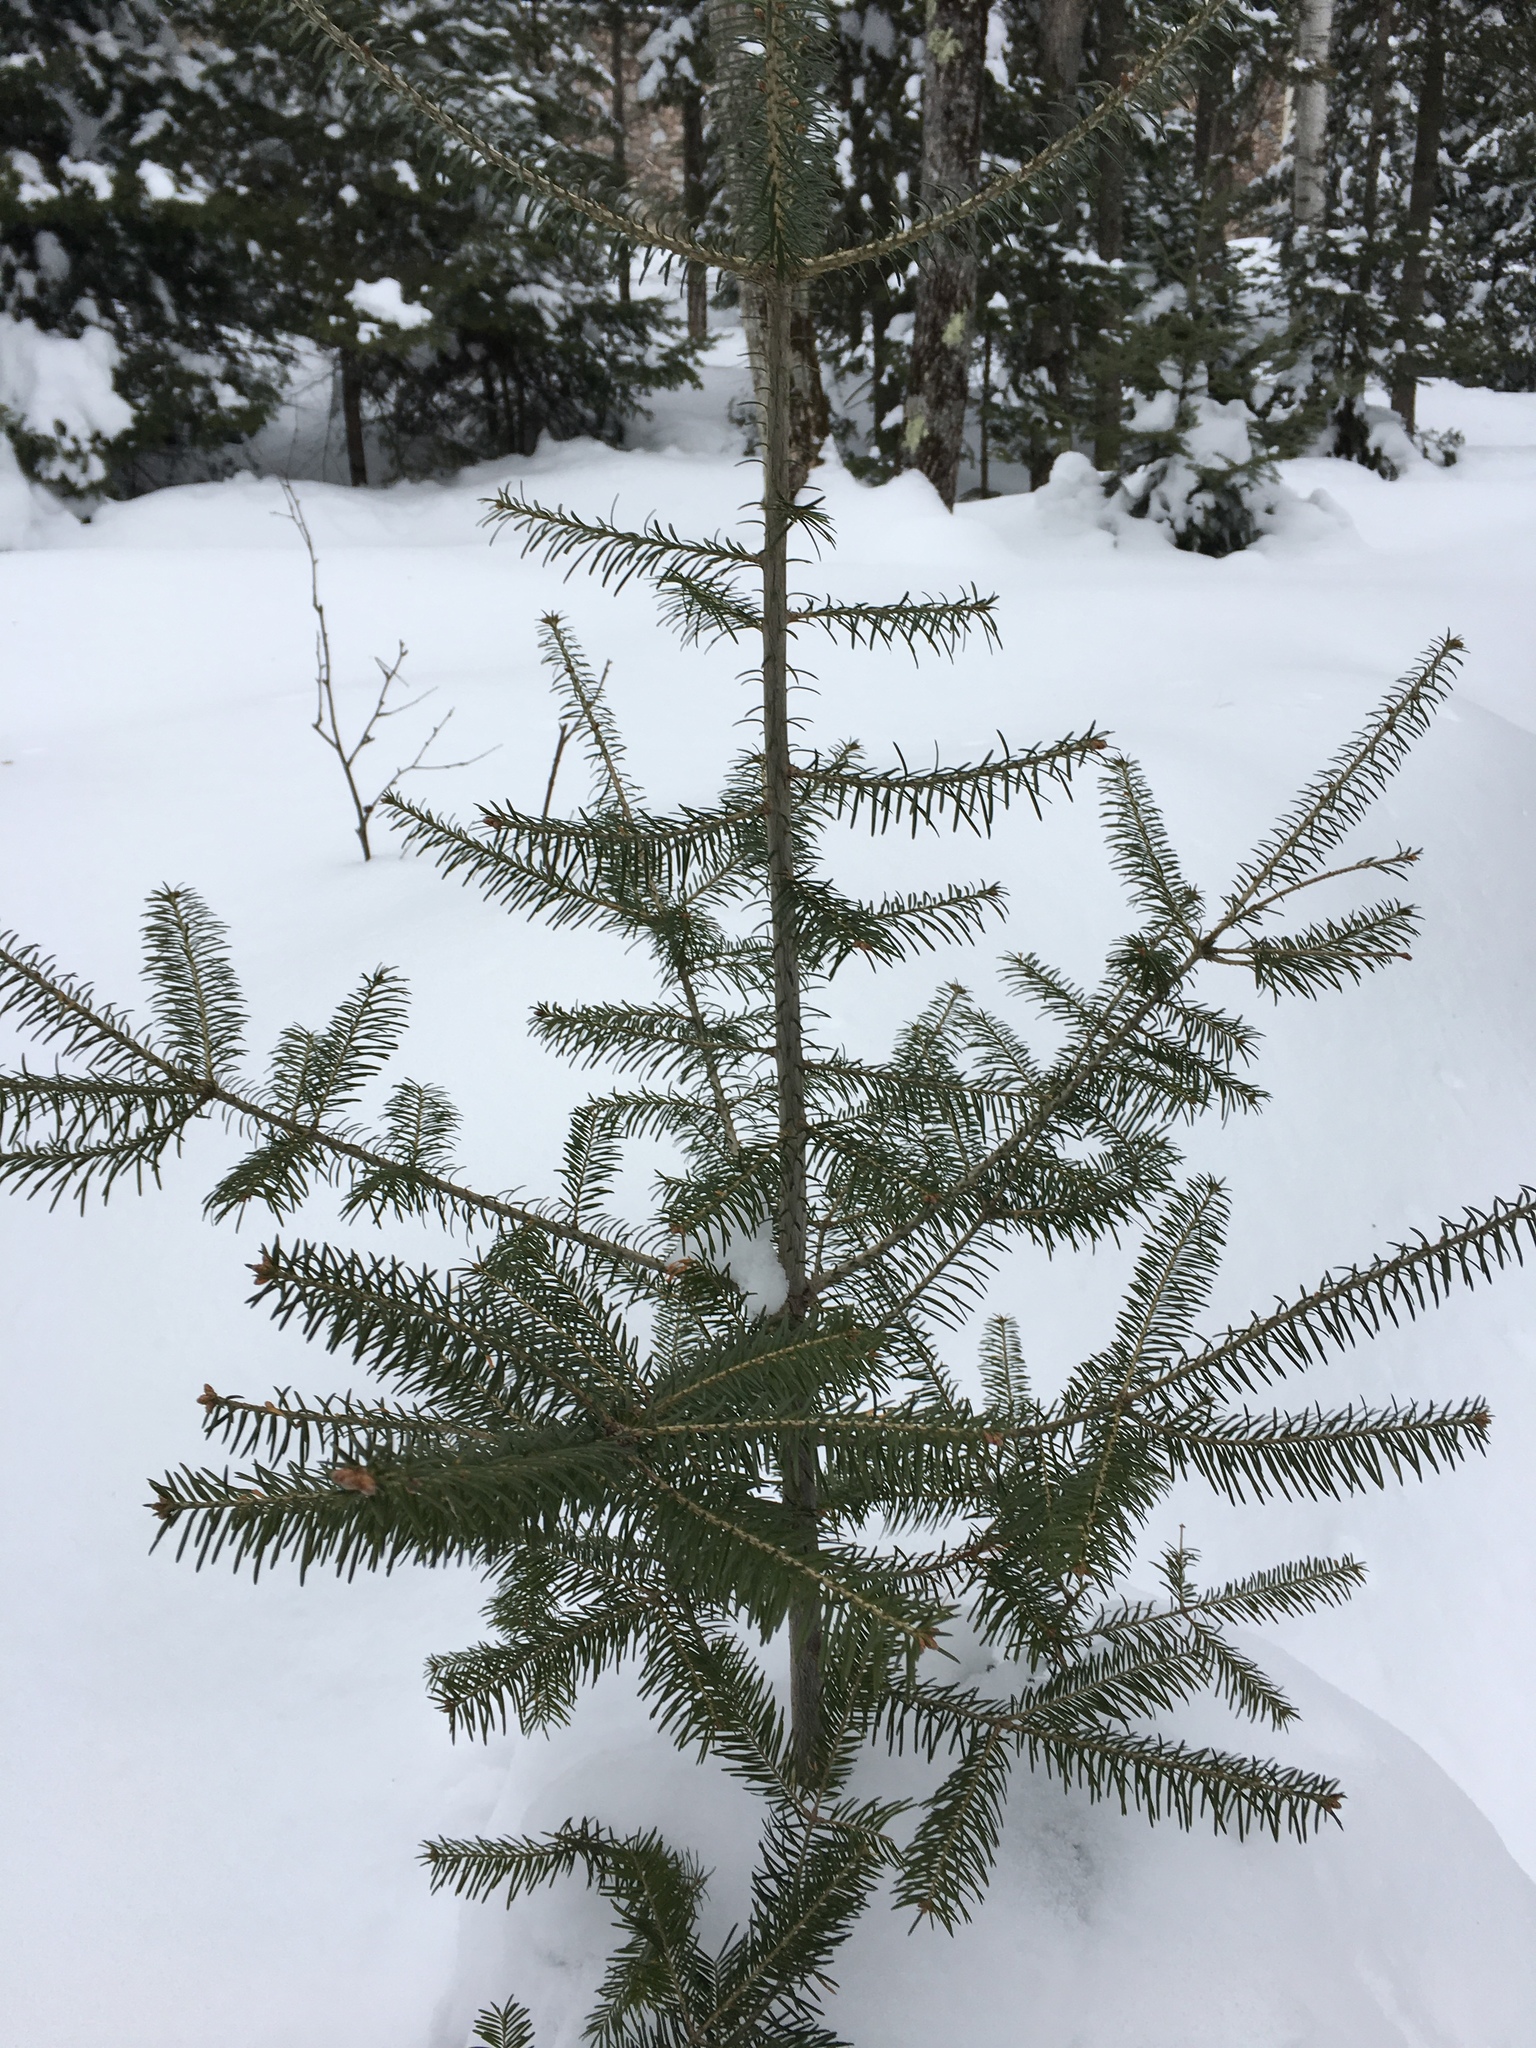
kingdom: Plantae
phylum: Tracheophyta
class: Pinopsida
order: Pinales
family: Pinaceae
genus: Abies
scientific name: Abies balsamea
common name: Balsam fir
